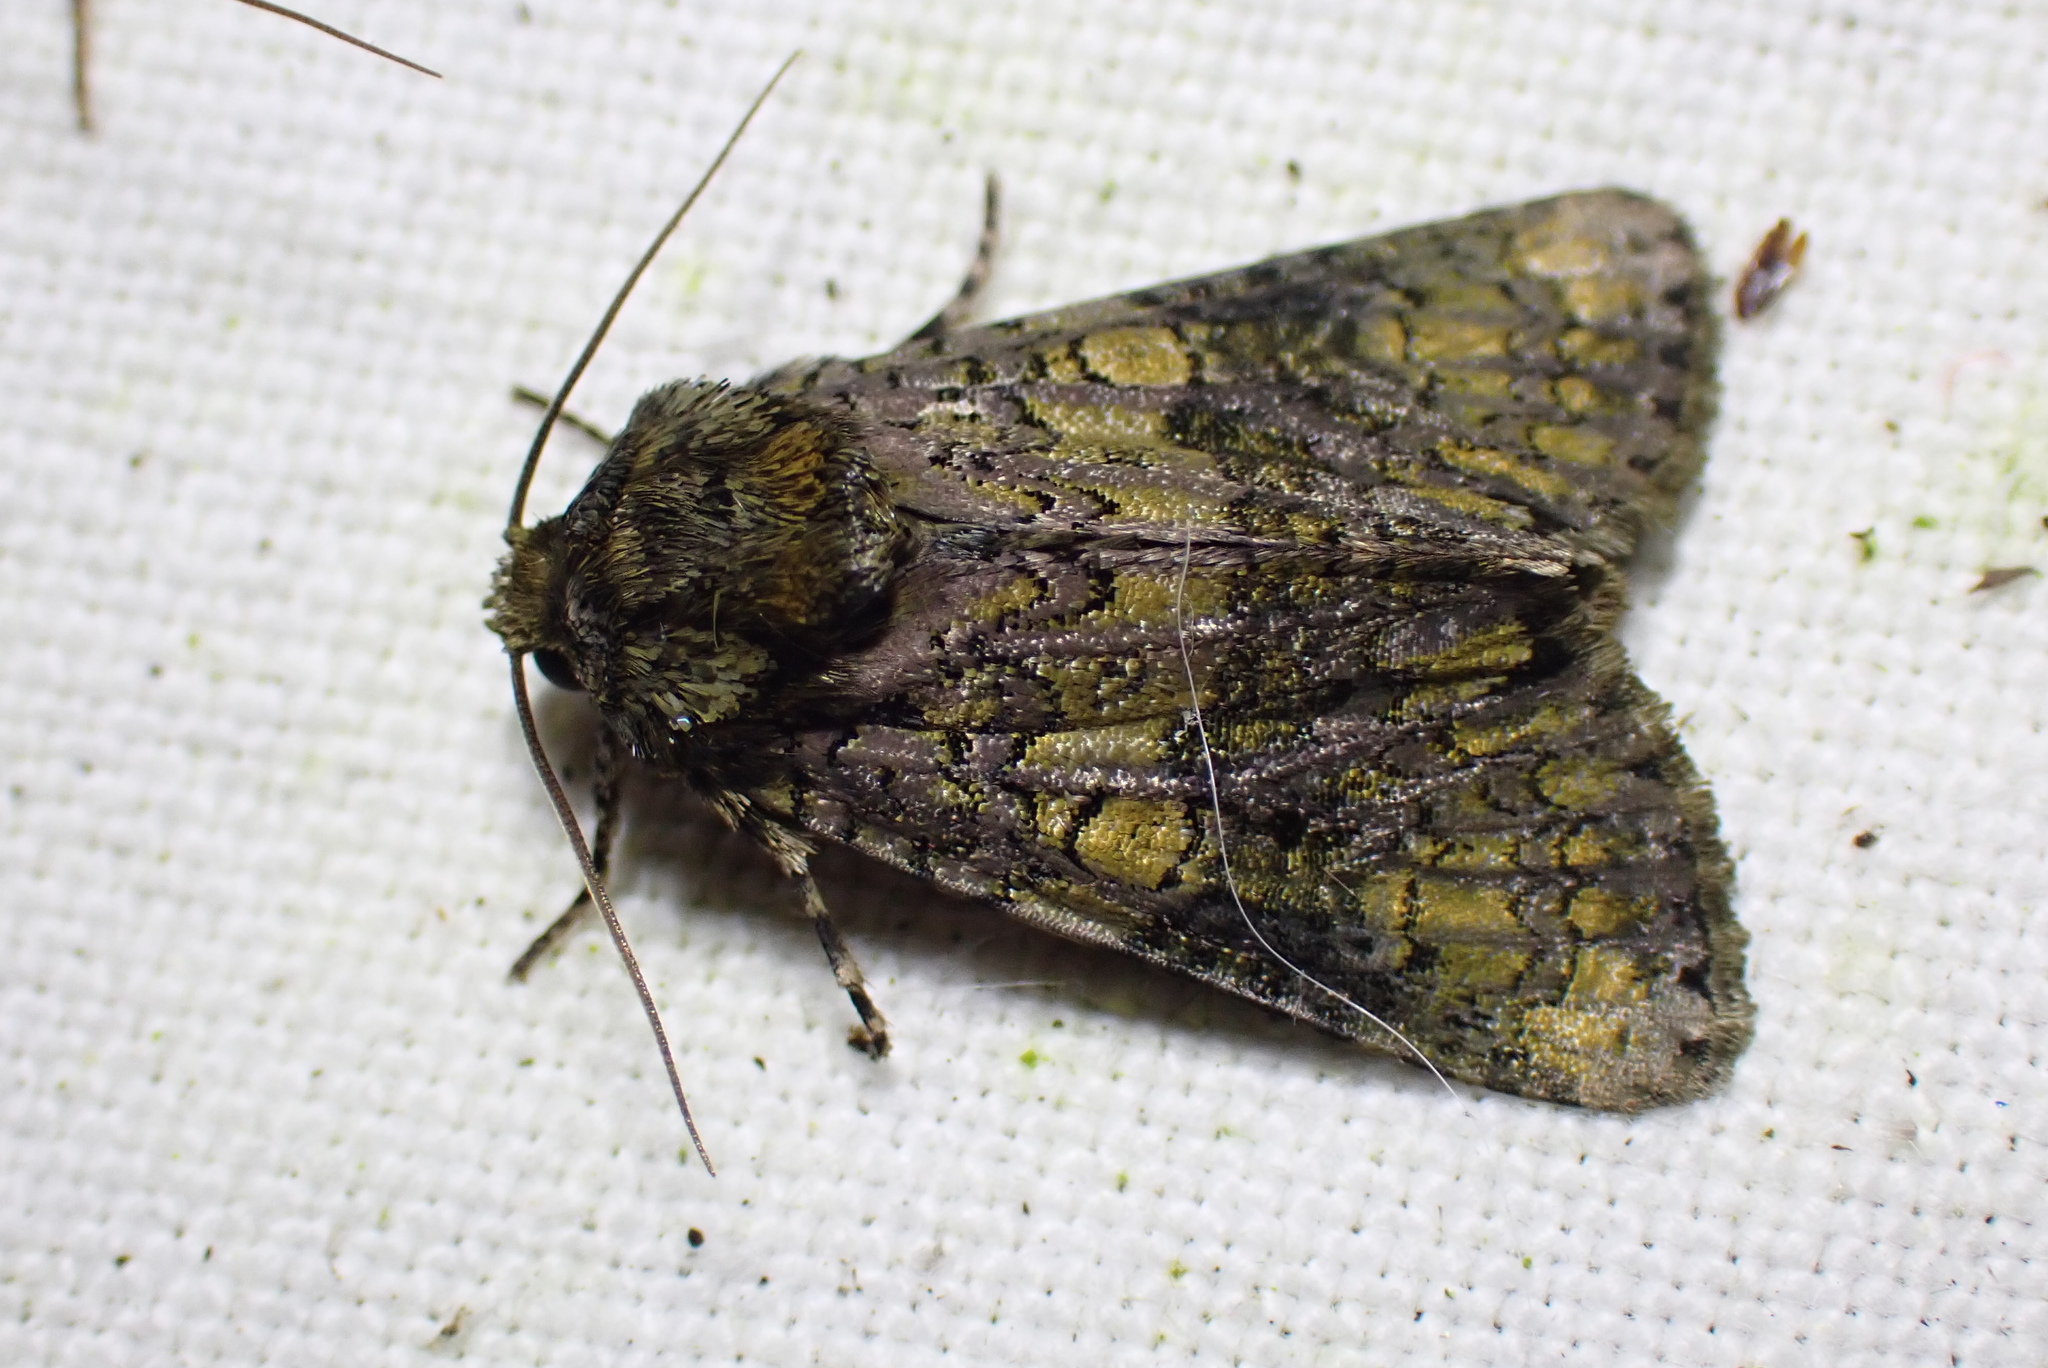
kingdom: Animalia
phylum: Arthropoda
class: Insecta
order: Lepidoptera
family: Noctuidae
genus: Craniophora
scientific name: Craniophora ligustri
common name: Coronet
